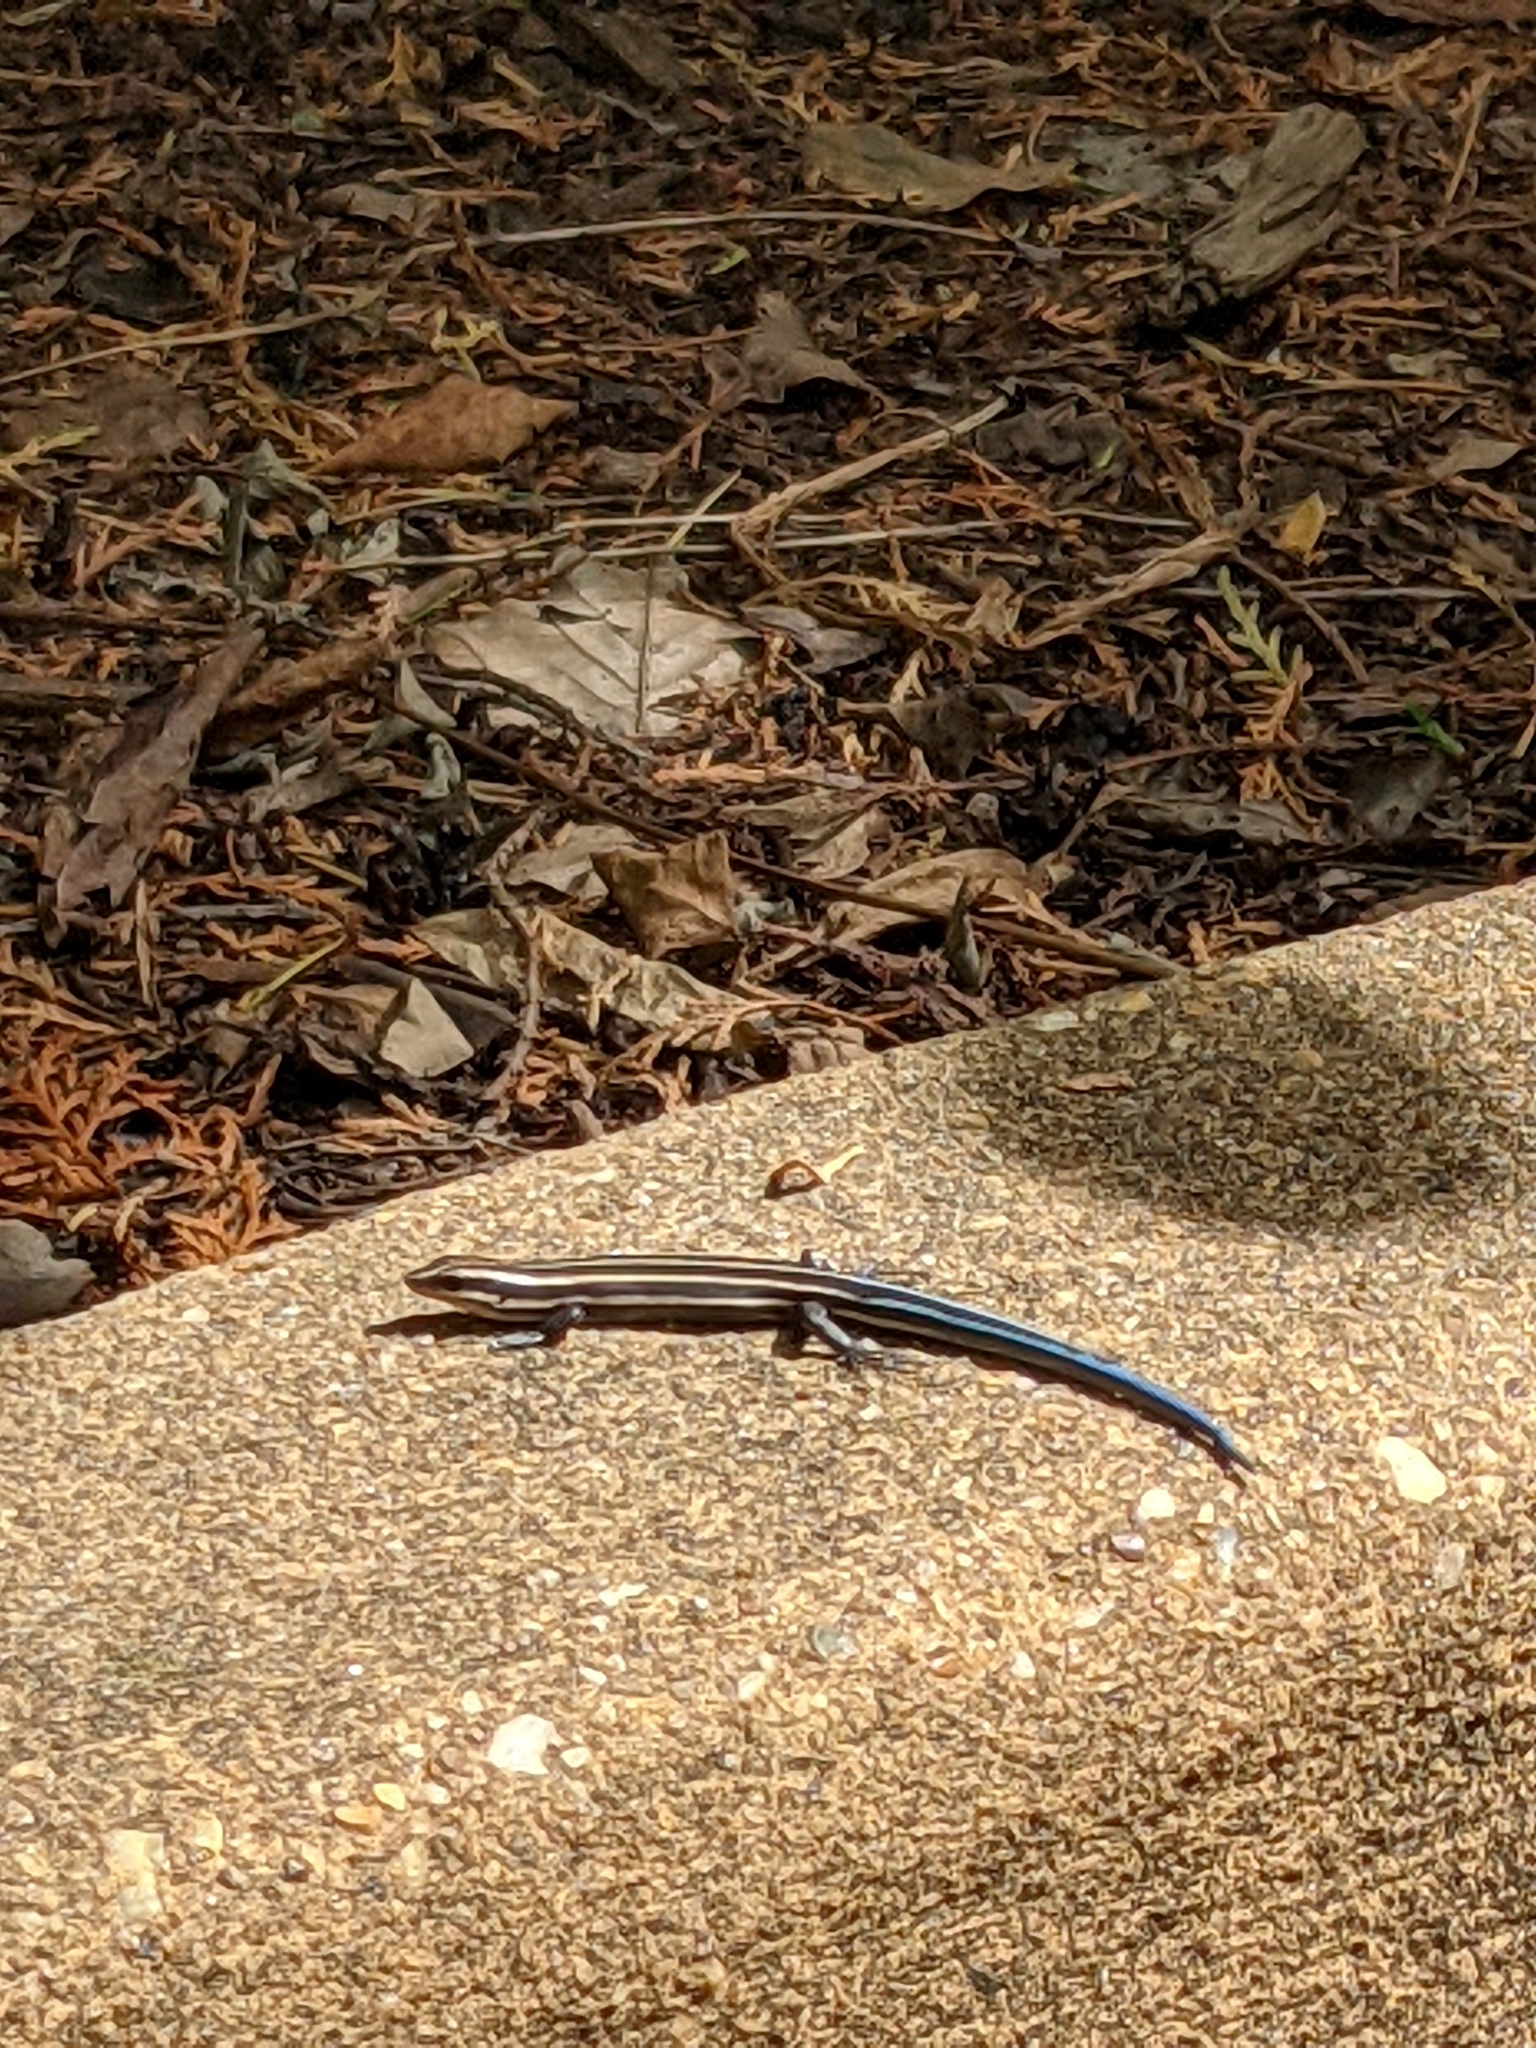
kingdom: Animalia
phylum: Chordata
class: Squamata
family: Scincidae
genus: Plestiodon
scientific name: Plestiodon fasciatus
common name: Five-lined skink
